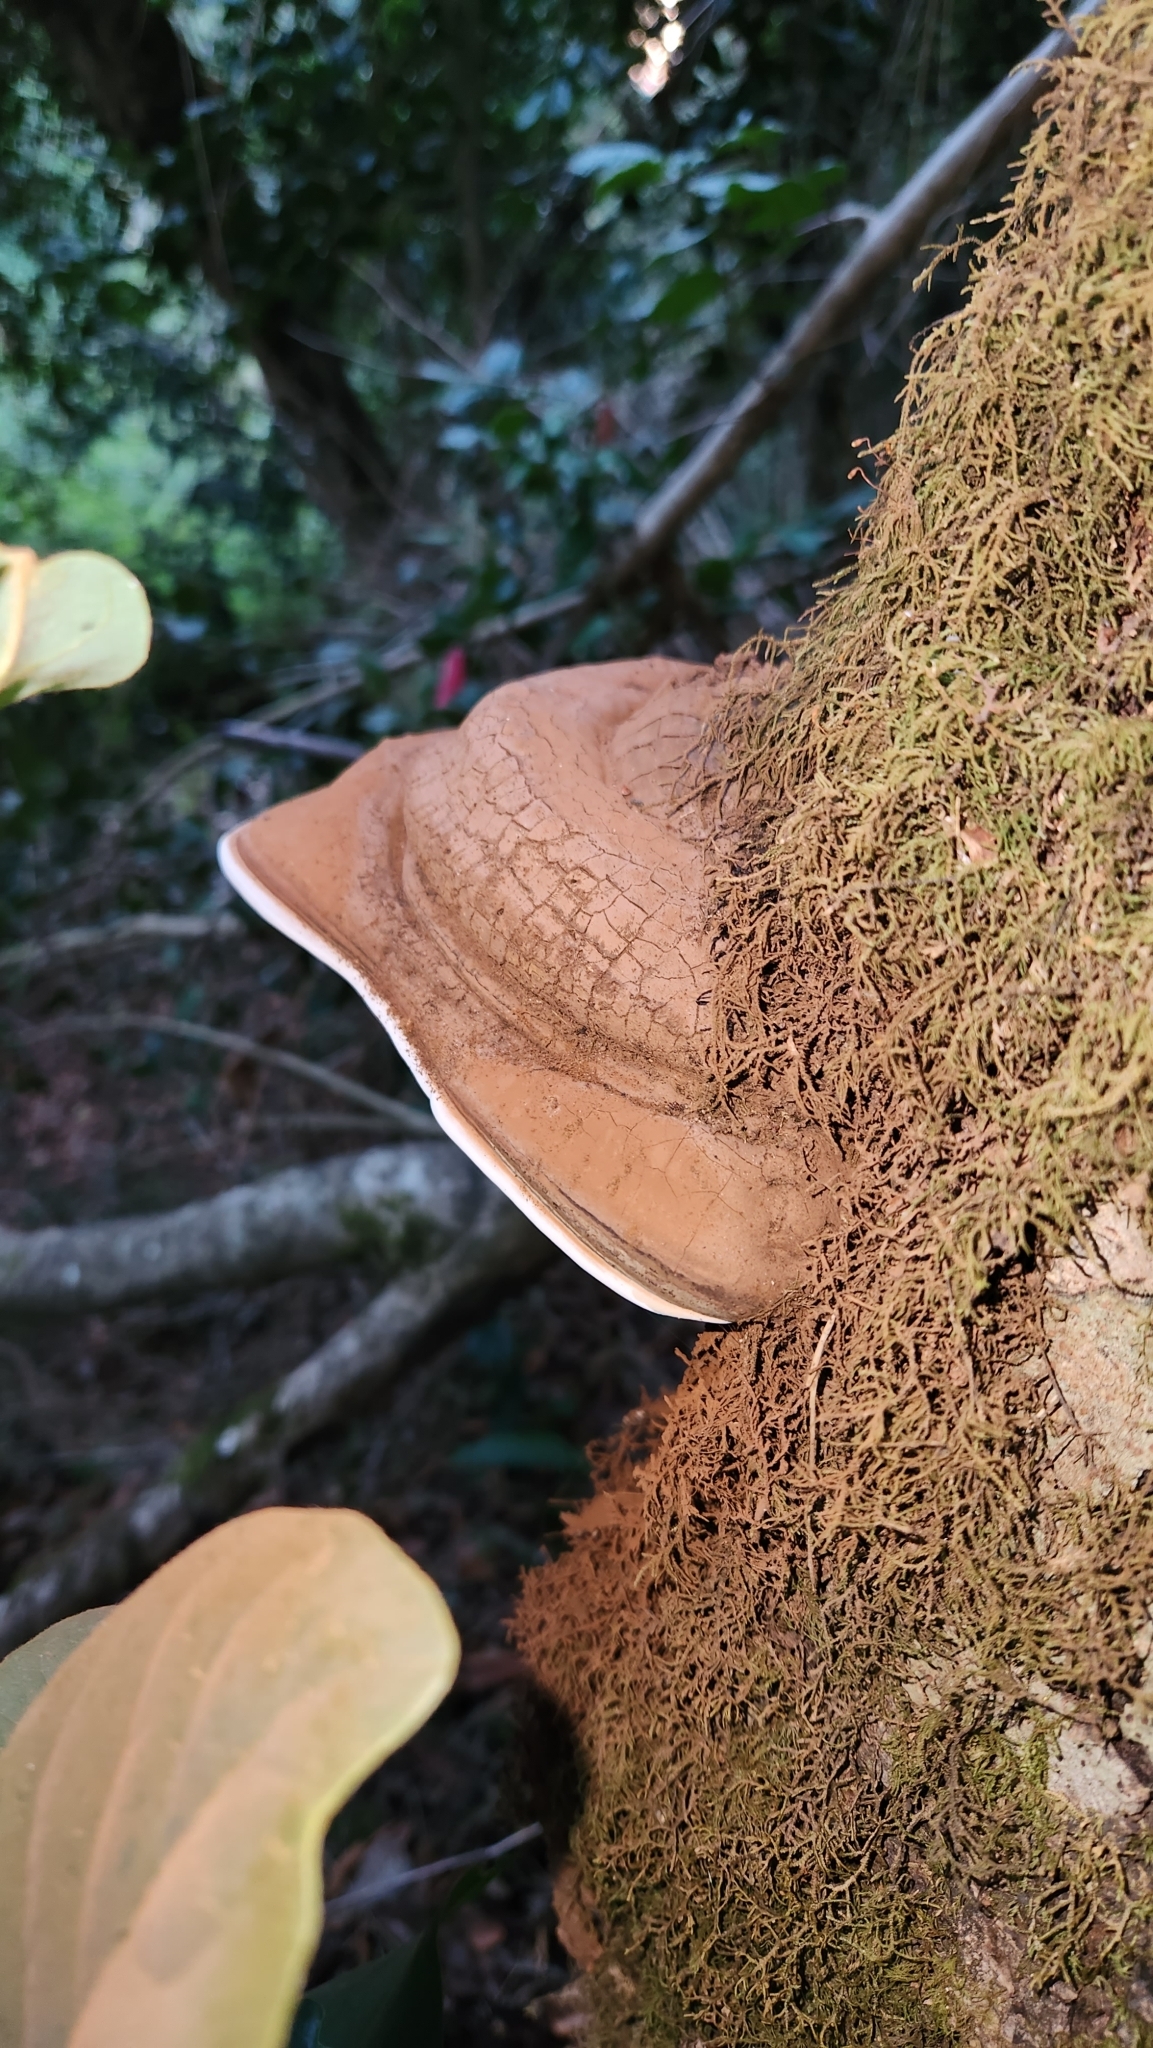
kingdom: Fungi
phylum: Basidiomycota
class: Agaricomycetes
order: Polyporales
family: Polyporaceae
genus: Ganoderma
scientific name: Ganoderma australe
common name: Southern bracket
